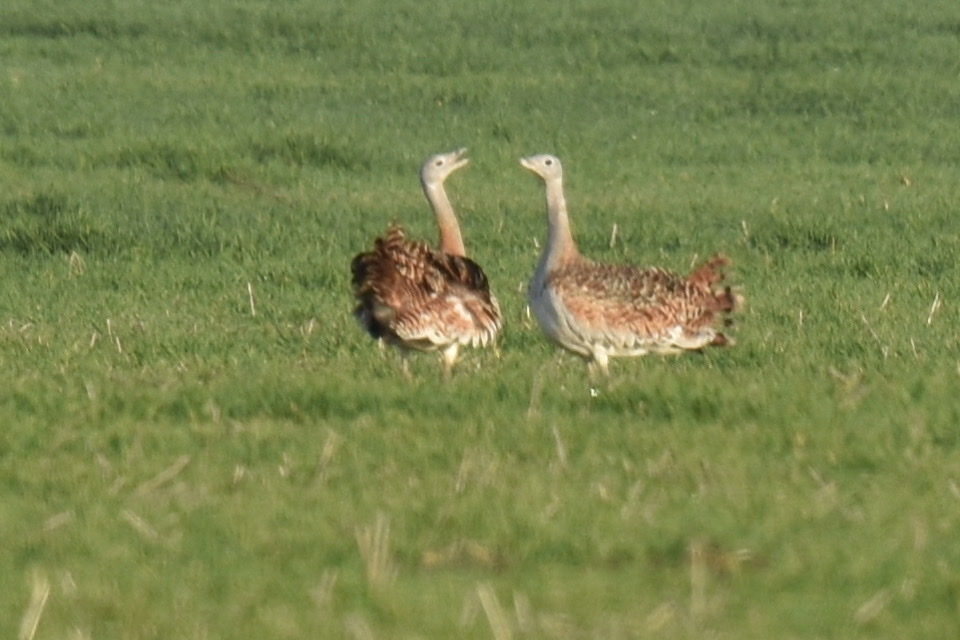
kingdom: Animalia
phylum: Chordata
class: Aves
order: Otidiformes
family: Otididae
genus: Otis
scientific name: Otis tarda
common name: Great bustard
